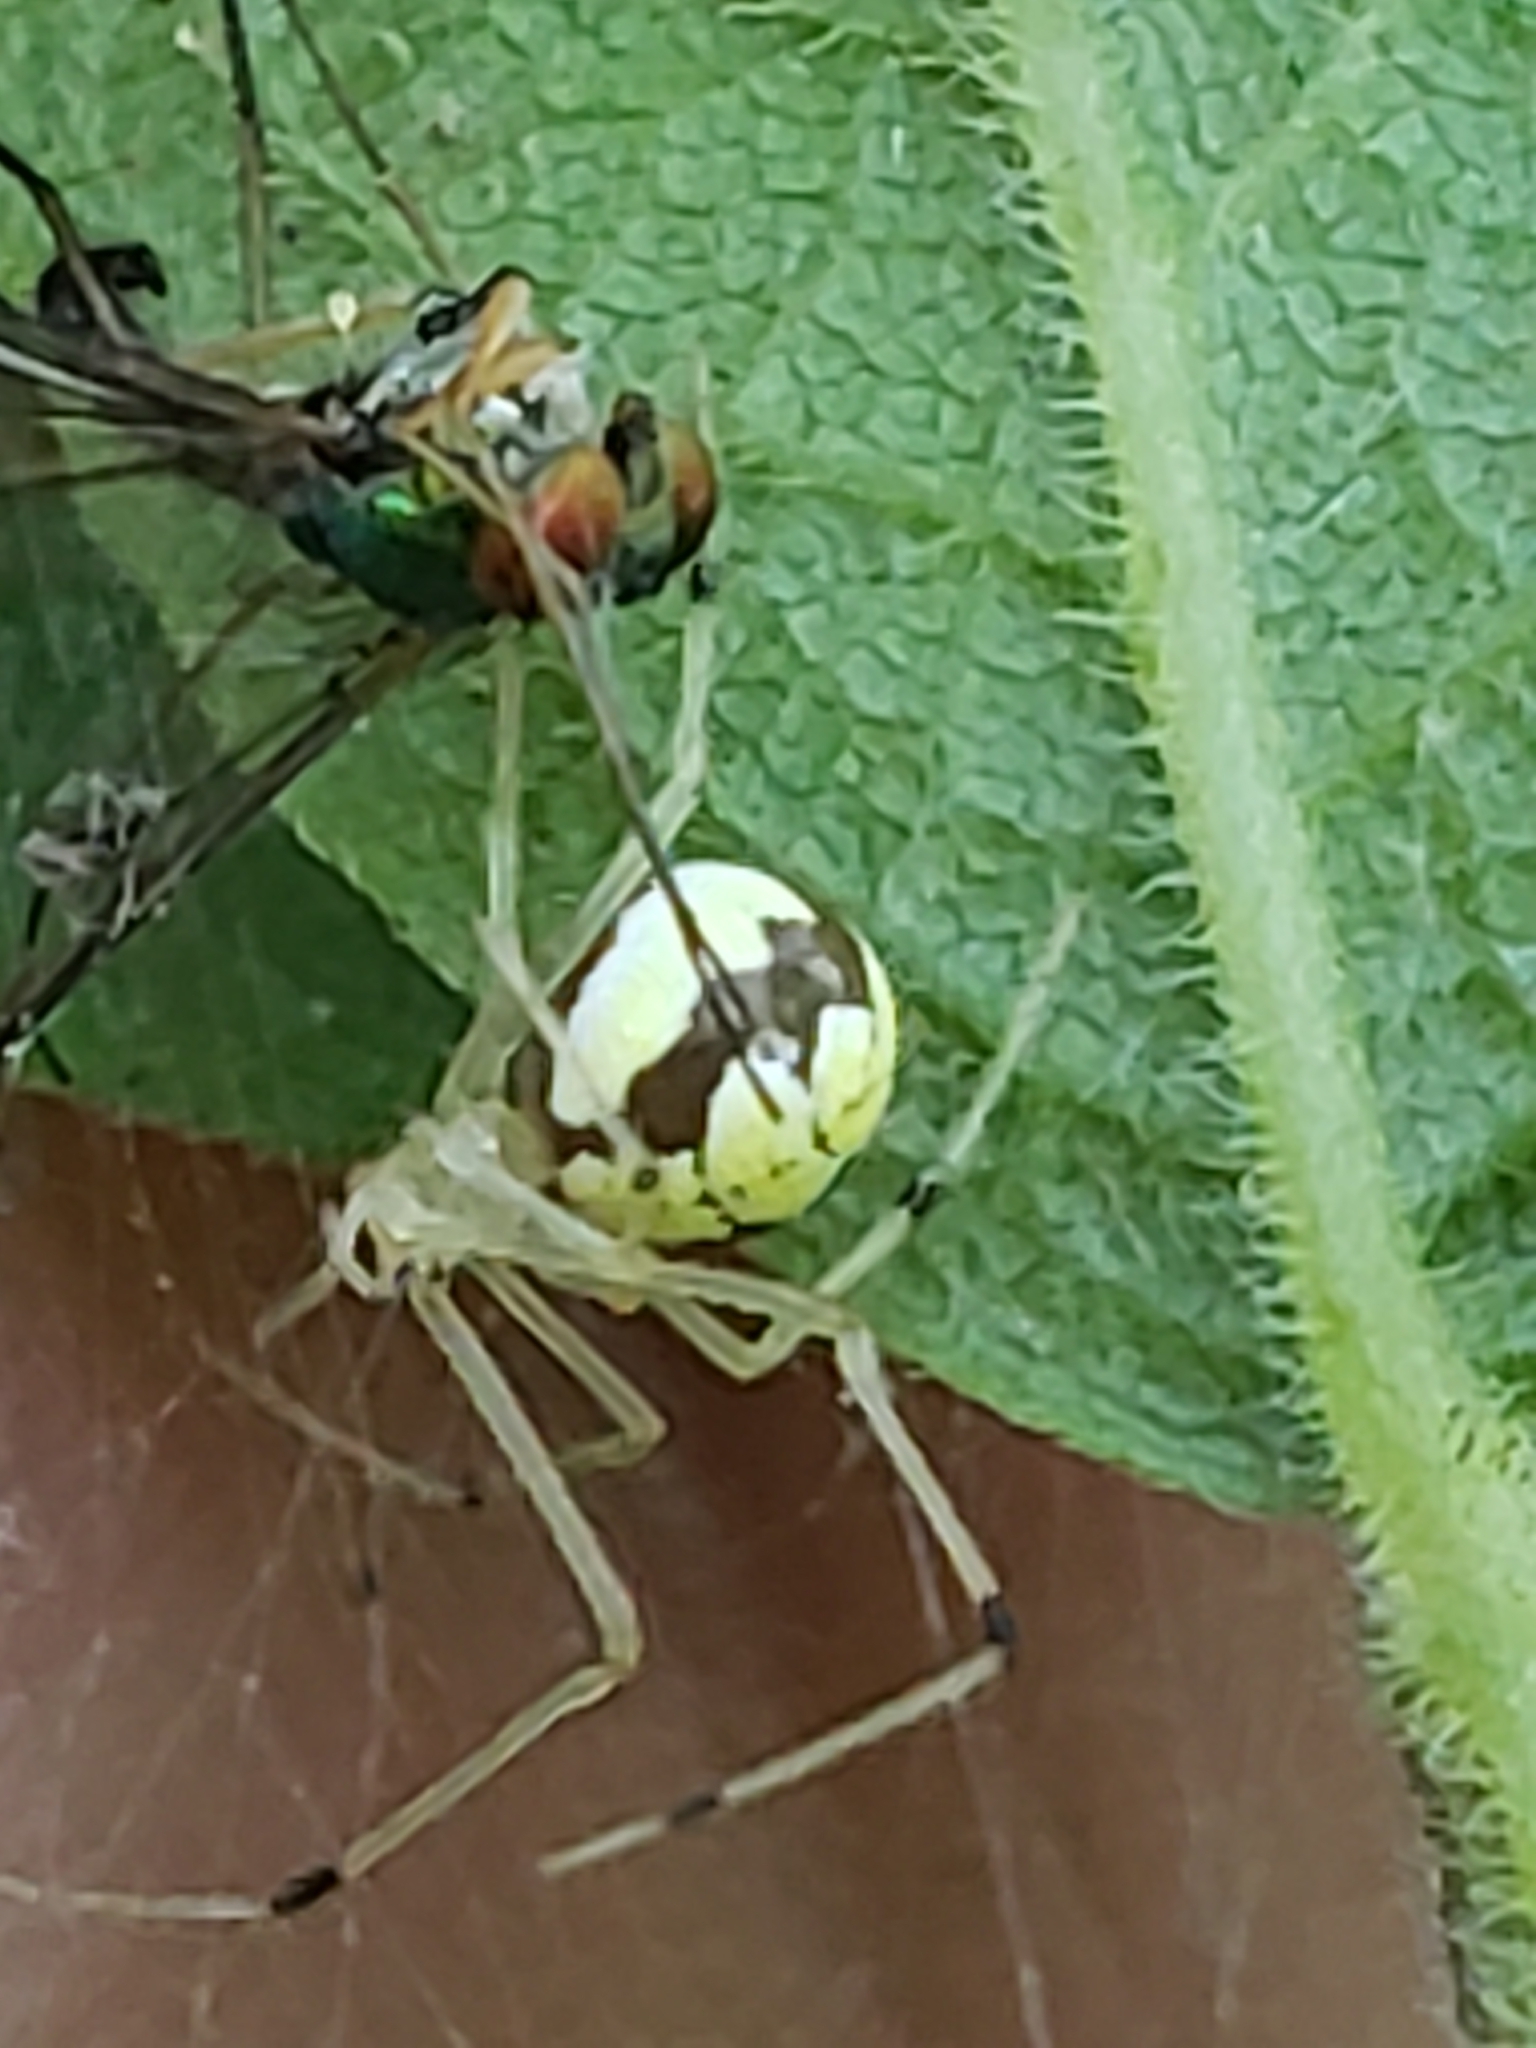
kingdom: Animalia
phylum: Arthropoda
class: Arachnida
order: Araneae
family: Theridiidae
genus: Phylloneta
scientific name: Phylloneta pictipes
